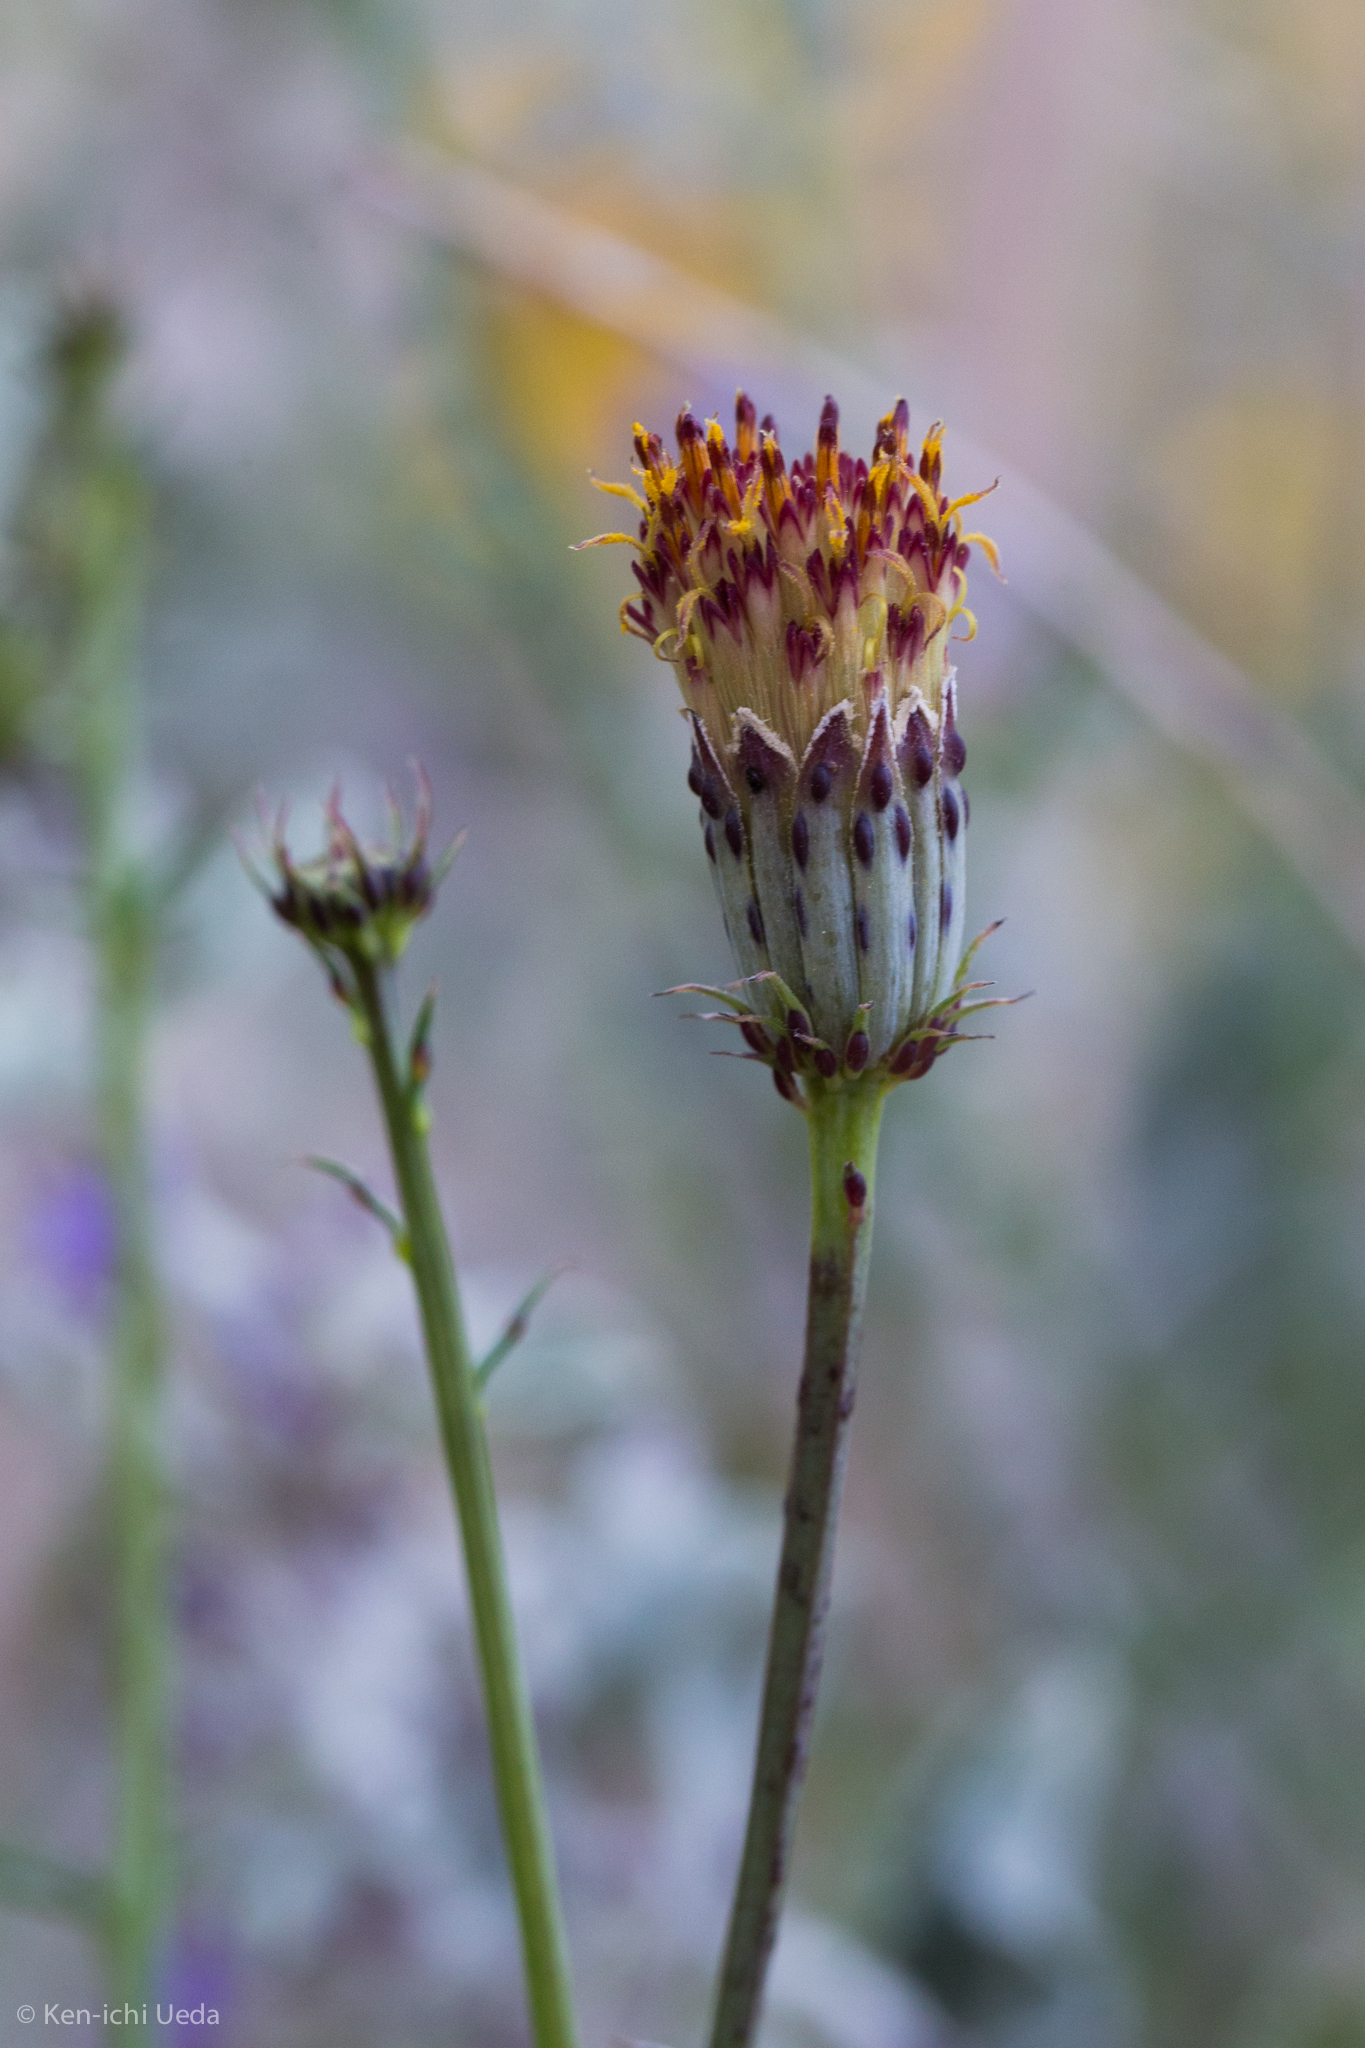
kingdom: Plantae
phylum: Tracheophyta
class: Magnoliopsida
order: Asterales
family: Asteraceae
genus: Adenophyllum
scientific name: Adenophyllum porophylloides
